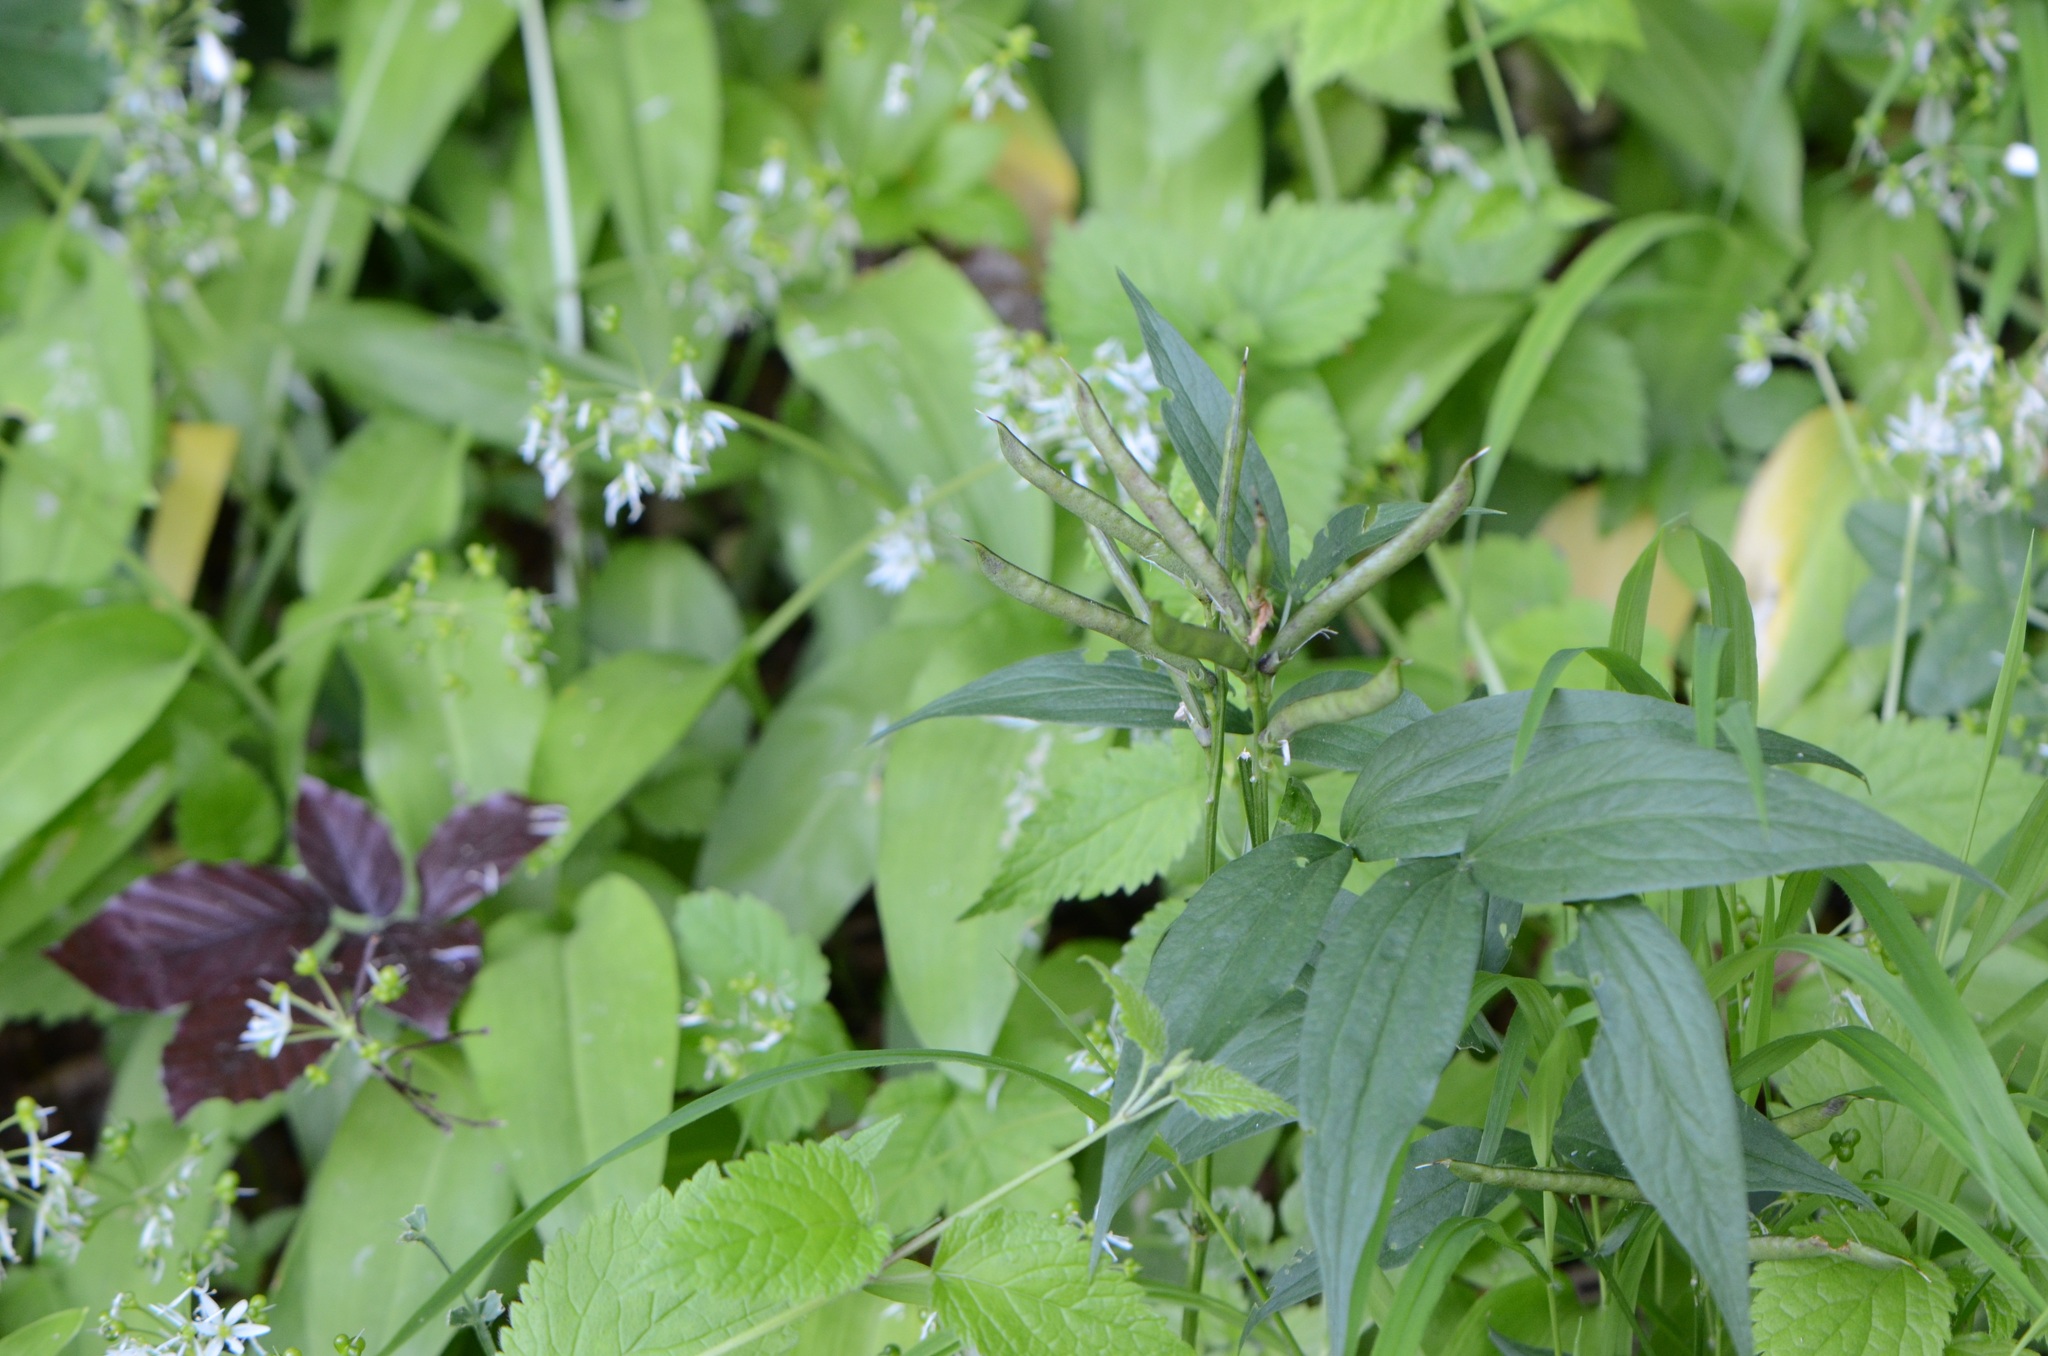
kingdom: Plantae
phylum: Tracheophyta
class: Magnoliopsida
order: Fabales
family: Fabaceae
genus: Lathyrus
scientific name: Lathyrus vernus
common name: Spring pea
